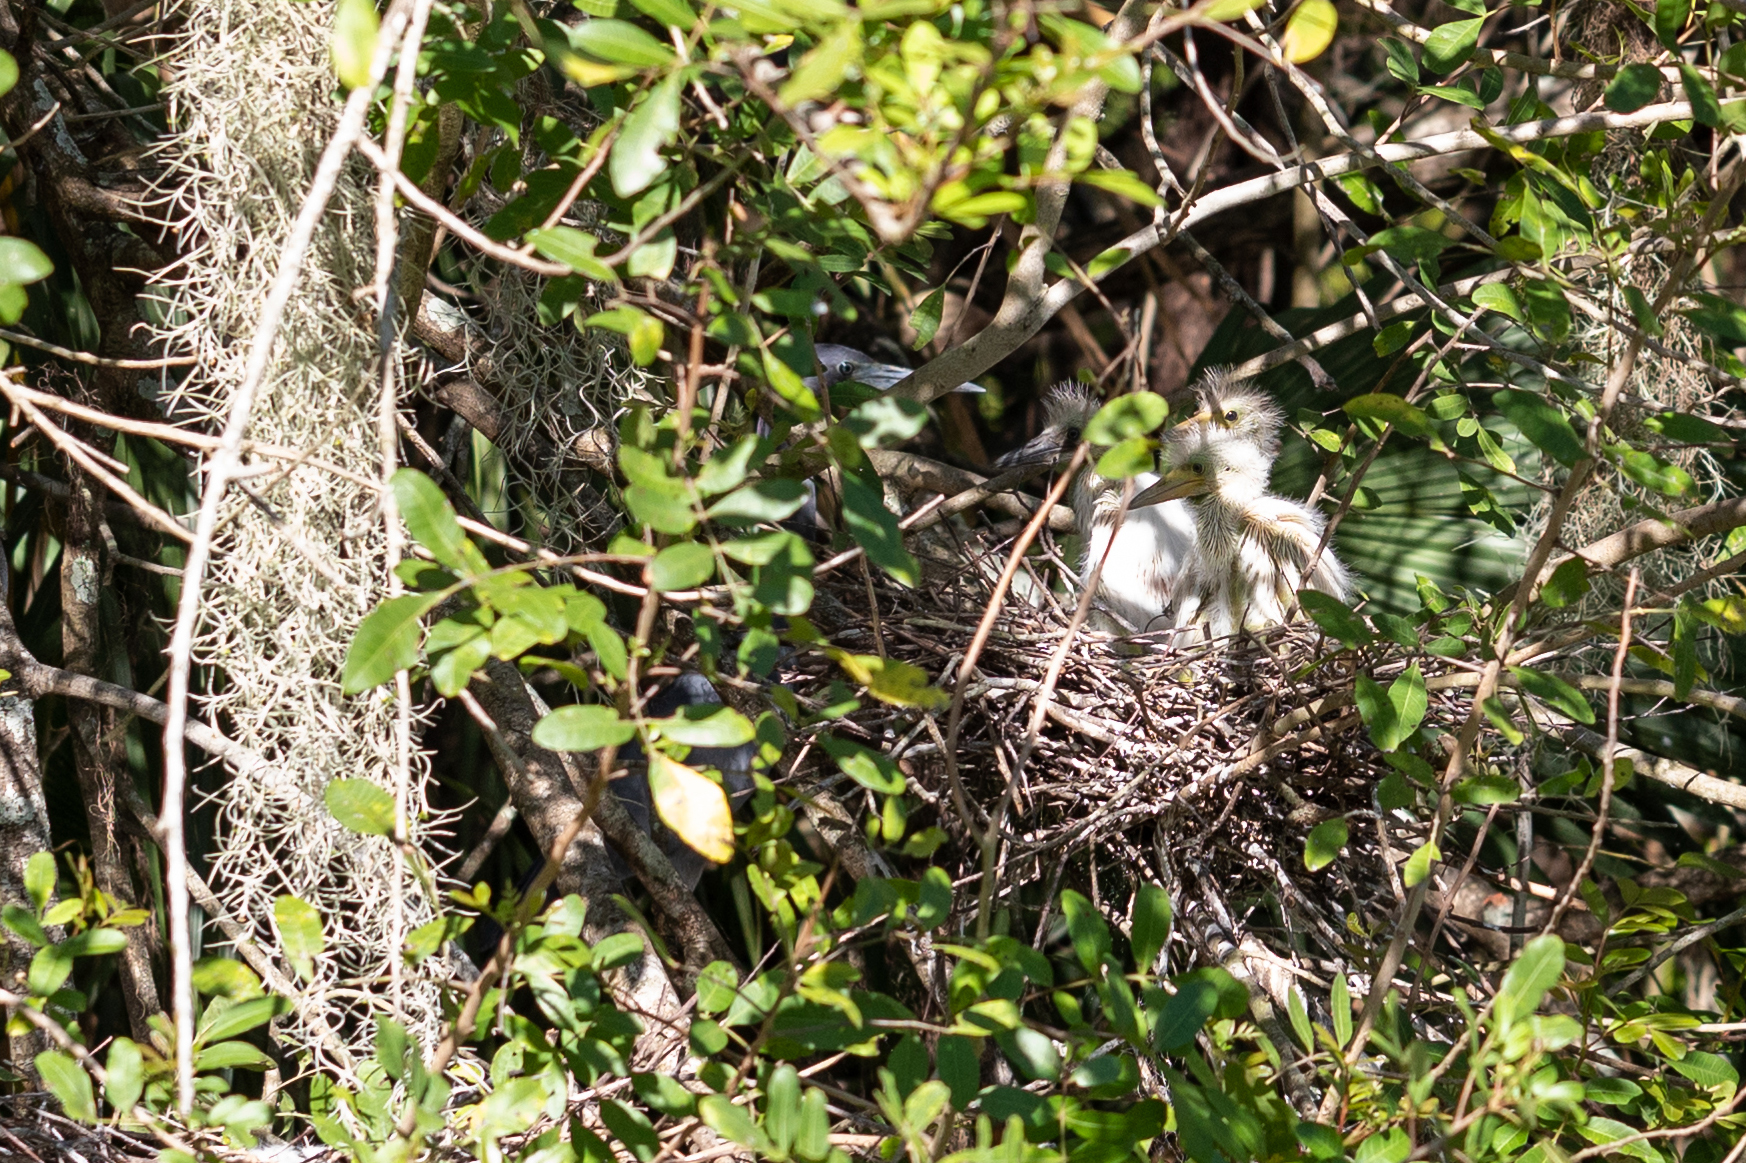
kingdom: Animalia
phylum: Chordata
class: Aves
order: Pelecaniformes
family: Ardeidae
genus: Egretta
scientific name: Egretta caerulea
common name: Little blue heron
